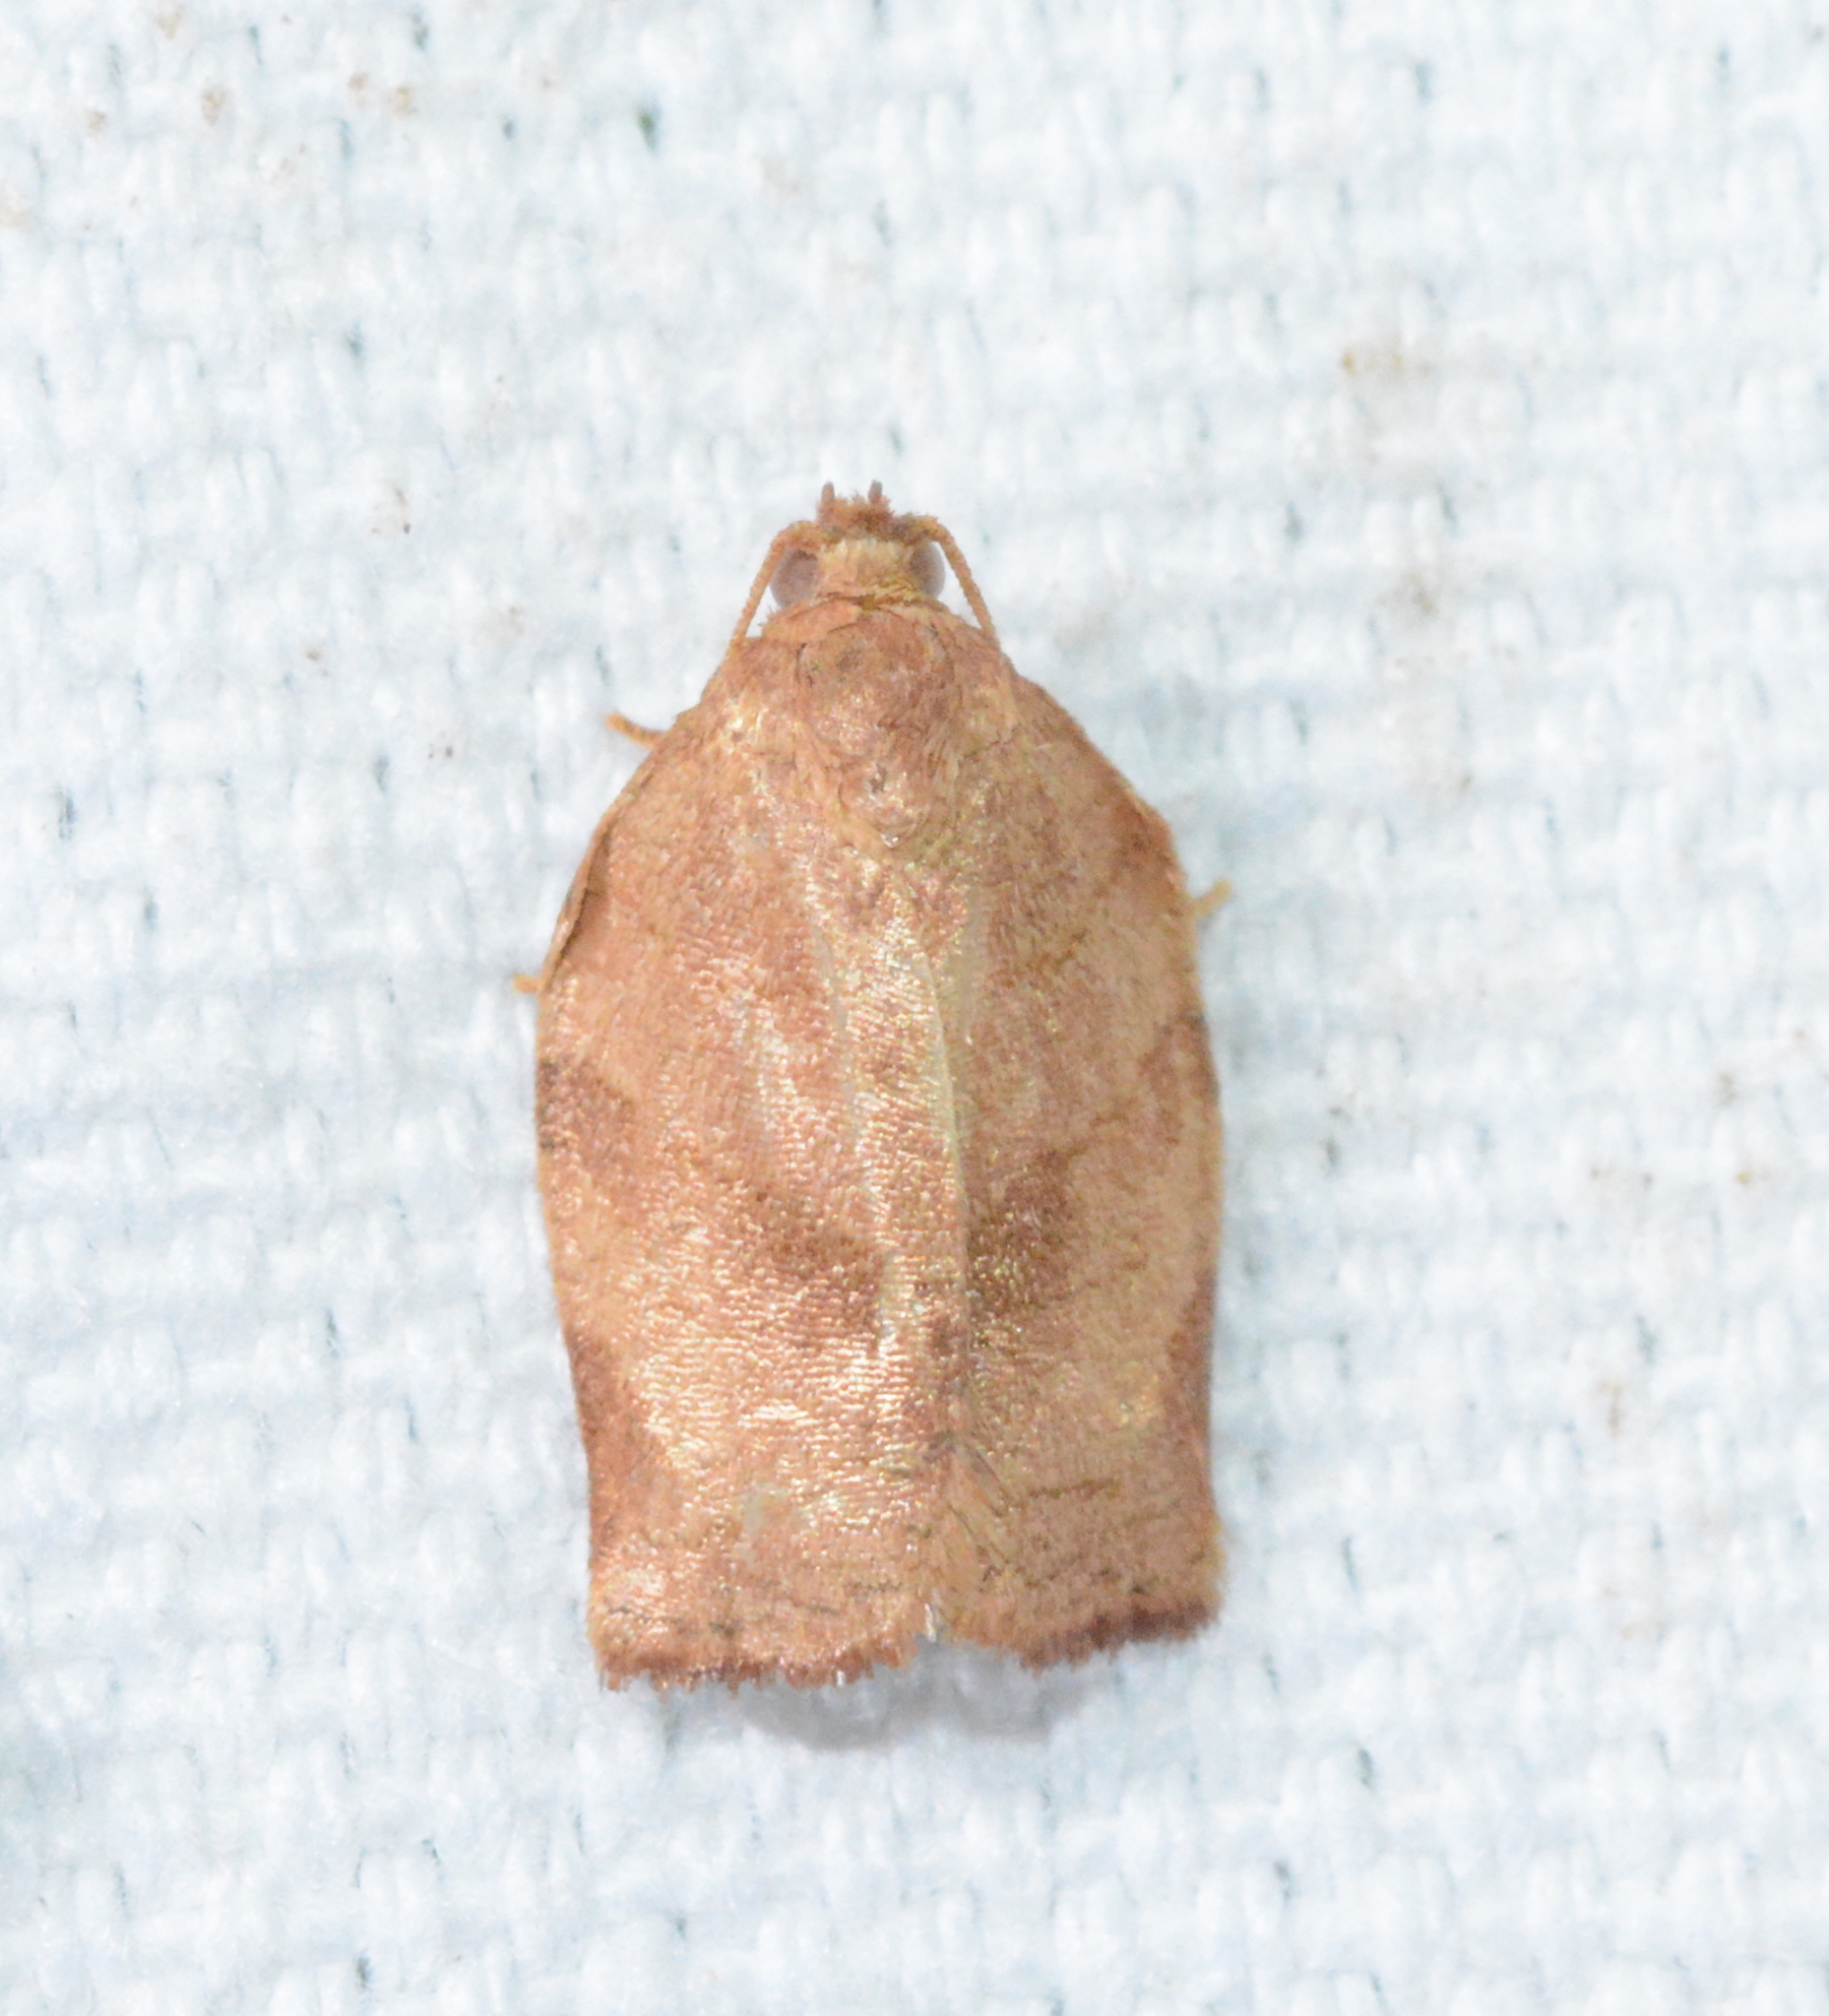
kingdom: Animalia
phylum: Arthropoda
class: Insecta
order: Lepidoptera
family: Tortricidae
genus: Choristoneura
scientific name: Choristoneura rosaceana
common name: Oblique-banded leafroller moth
